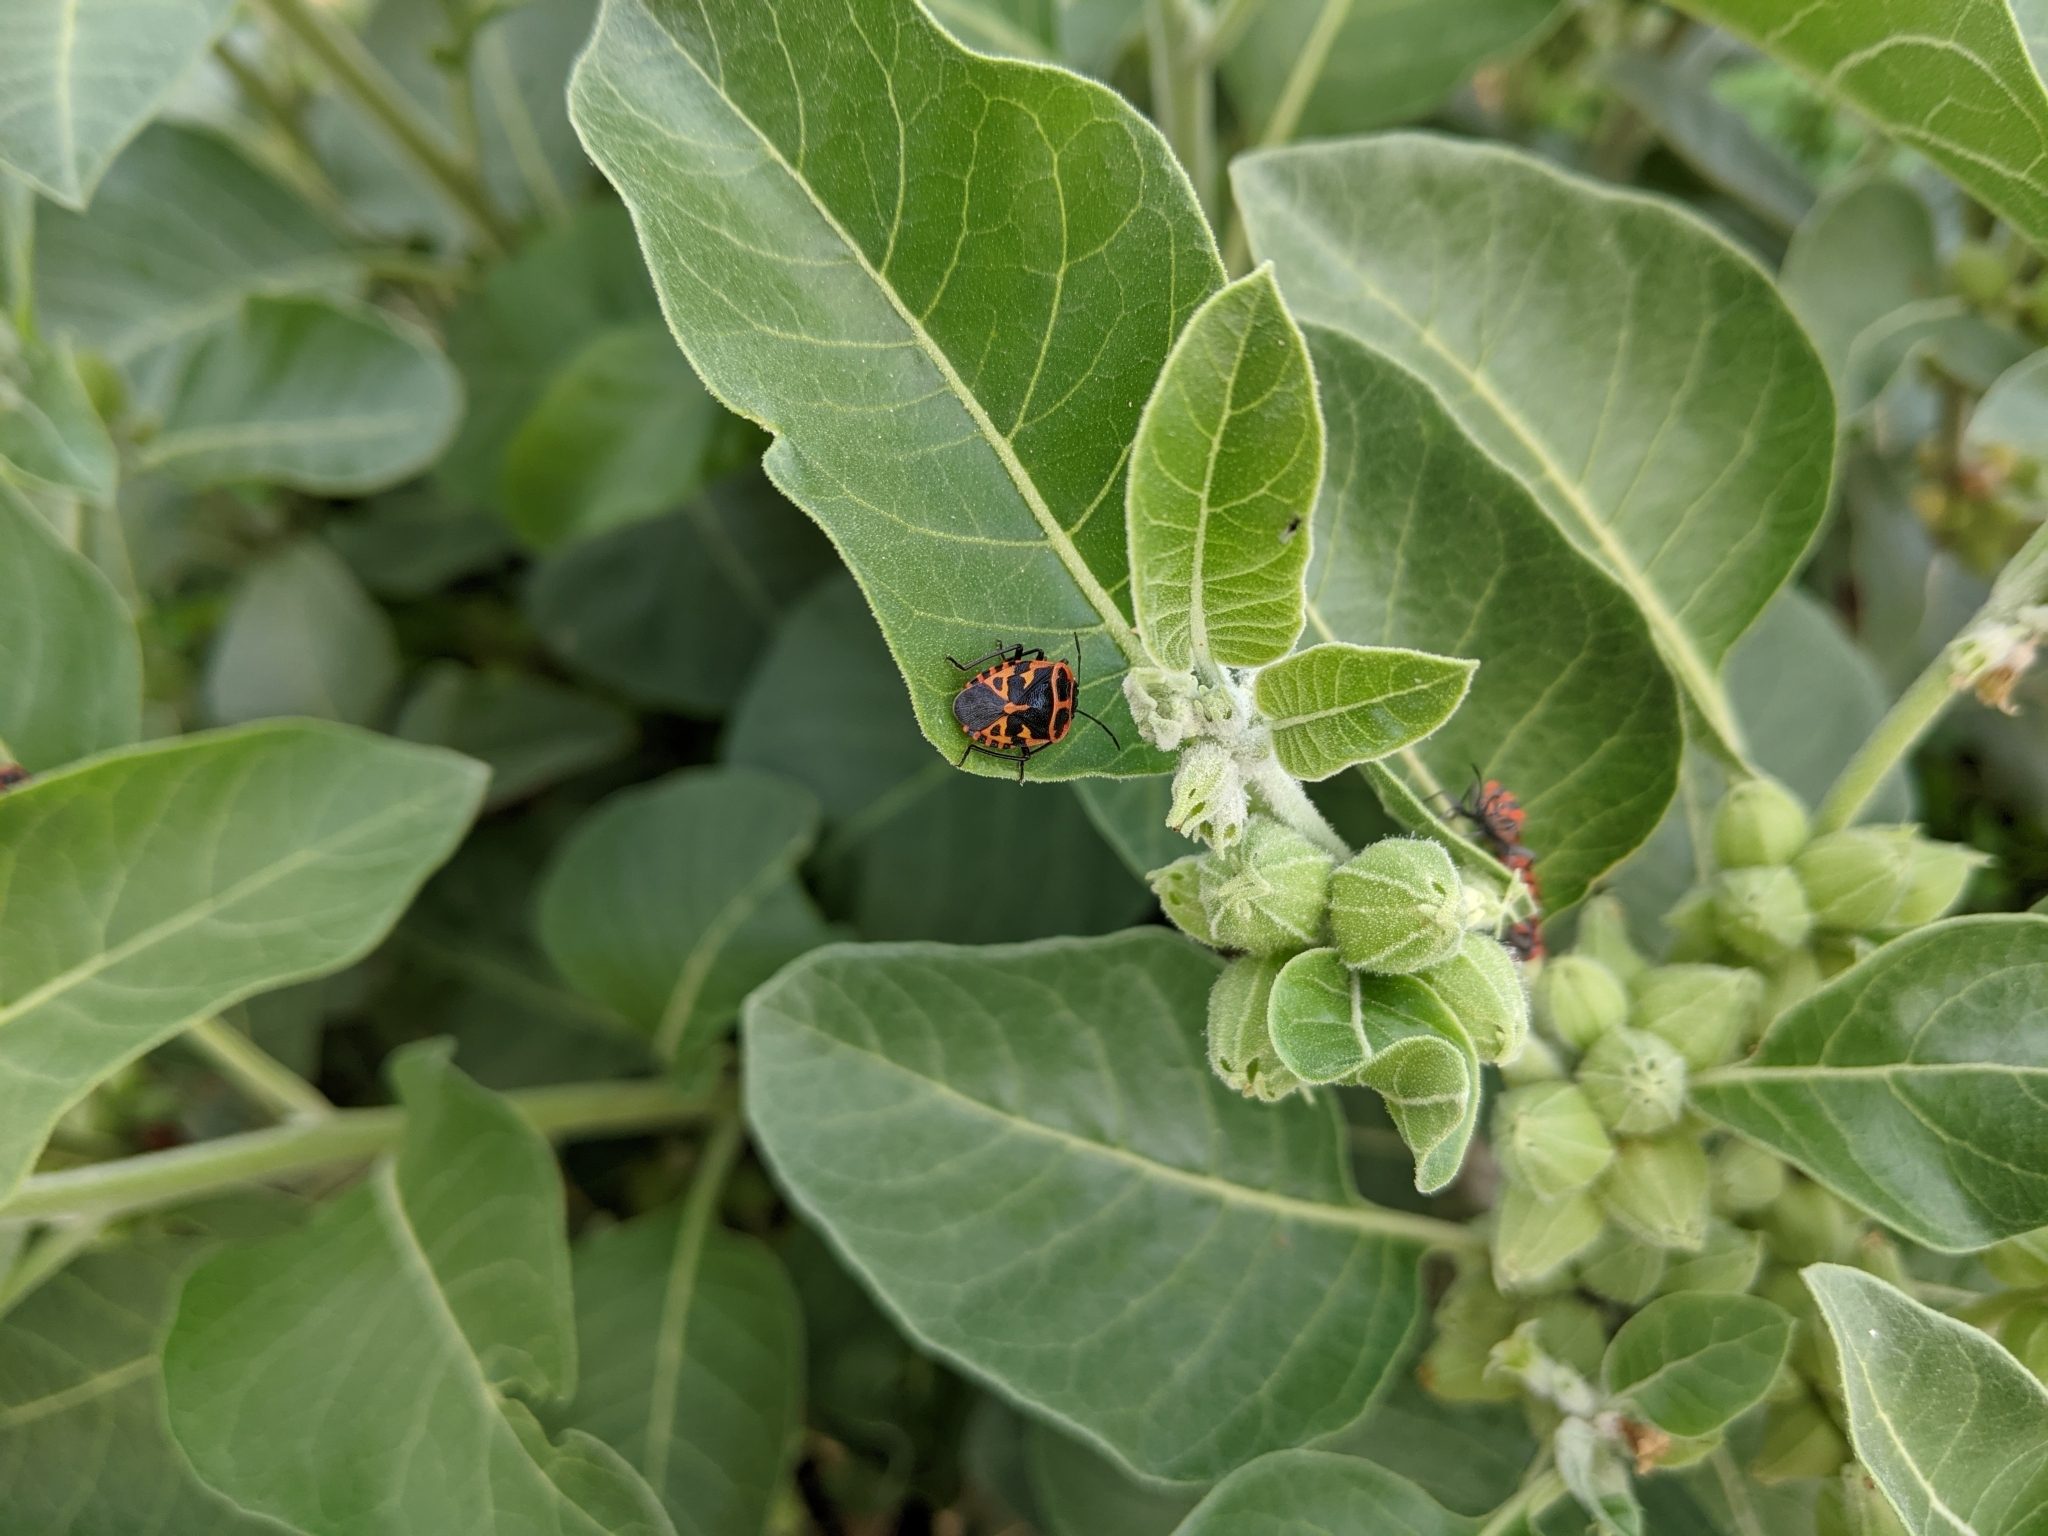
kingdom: Animalia
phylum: Arthropoda
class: Insecta
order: Hemiptera
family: Pentatomidae
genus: Eurydema
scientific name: Eurydema eckerleini
